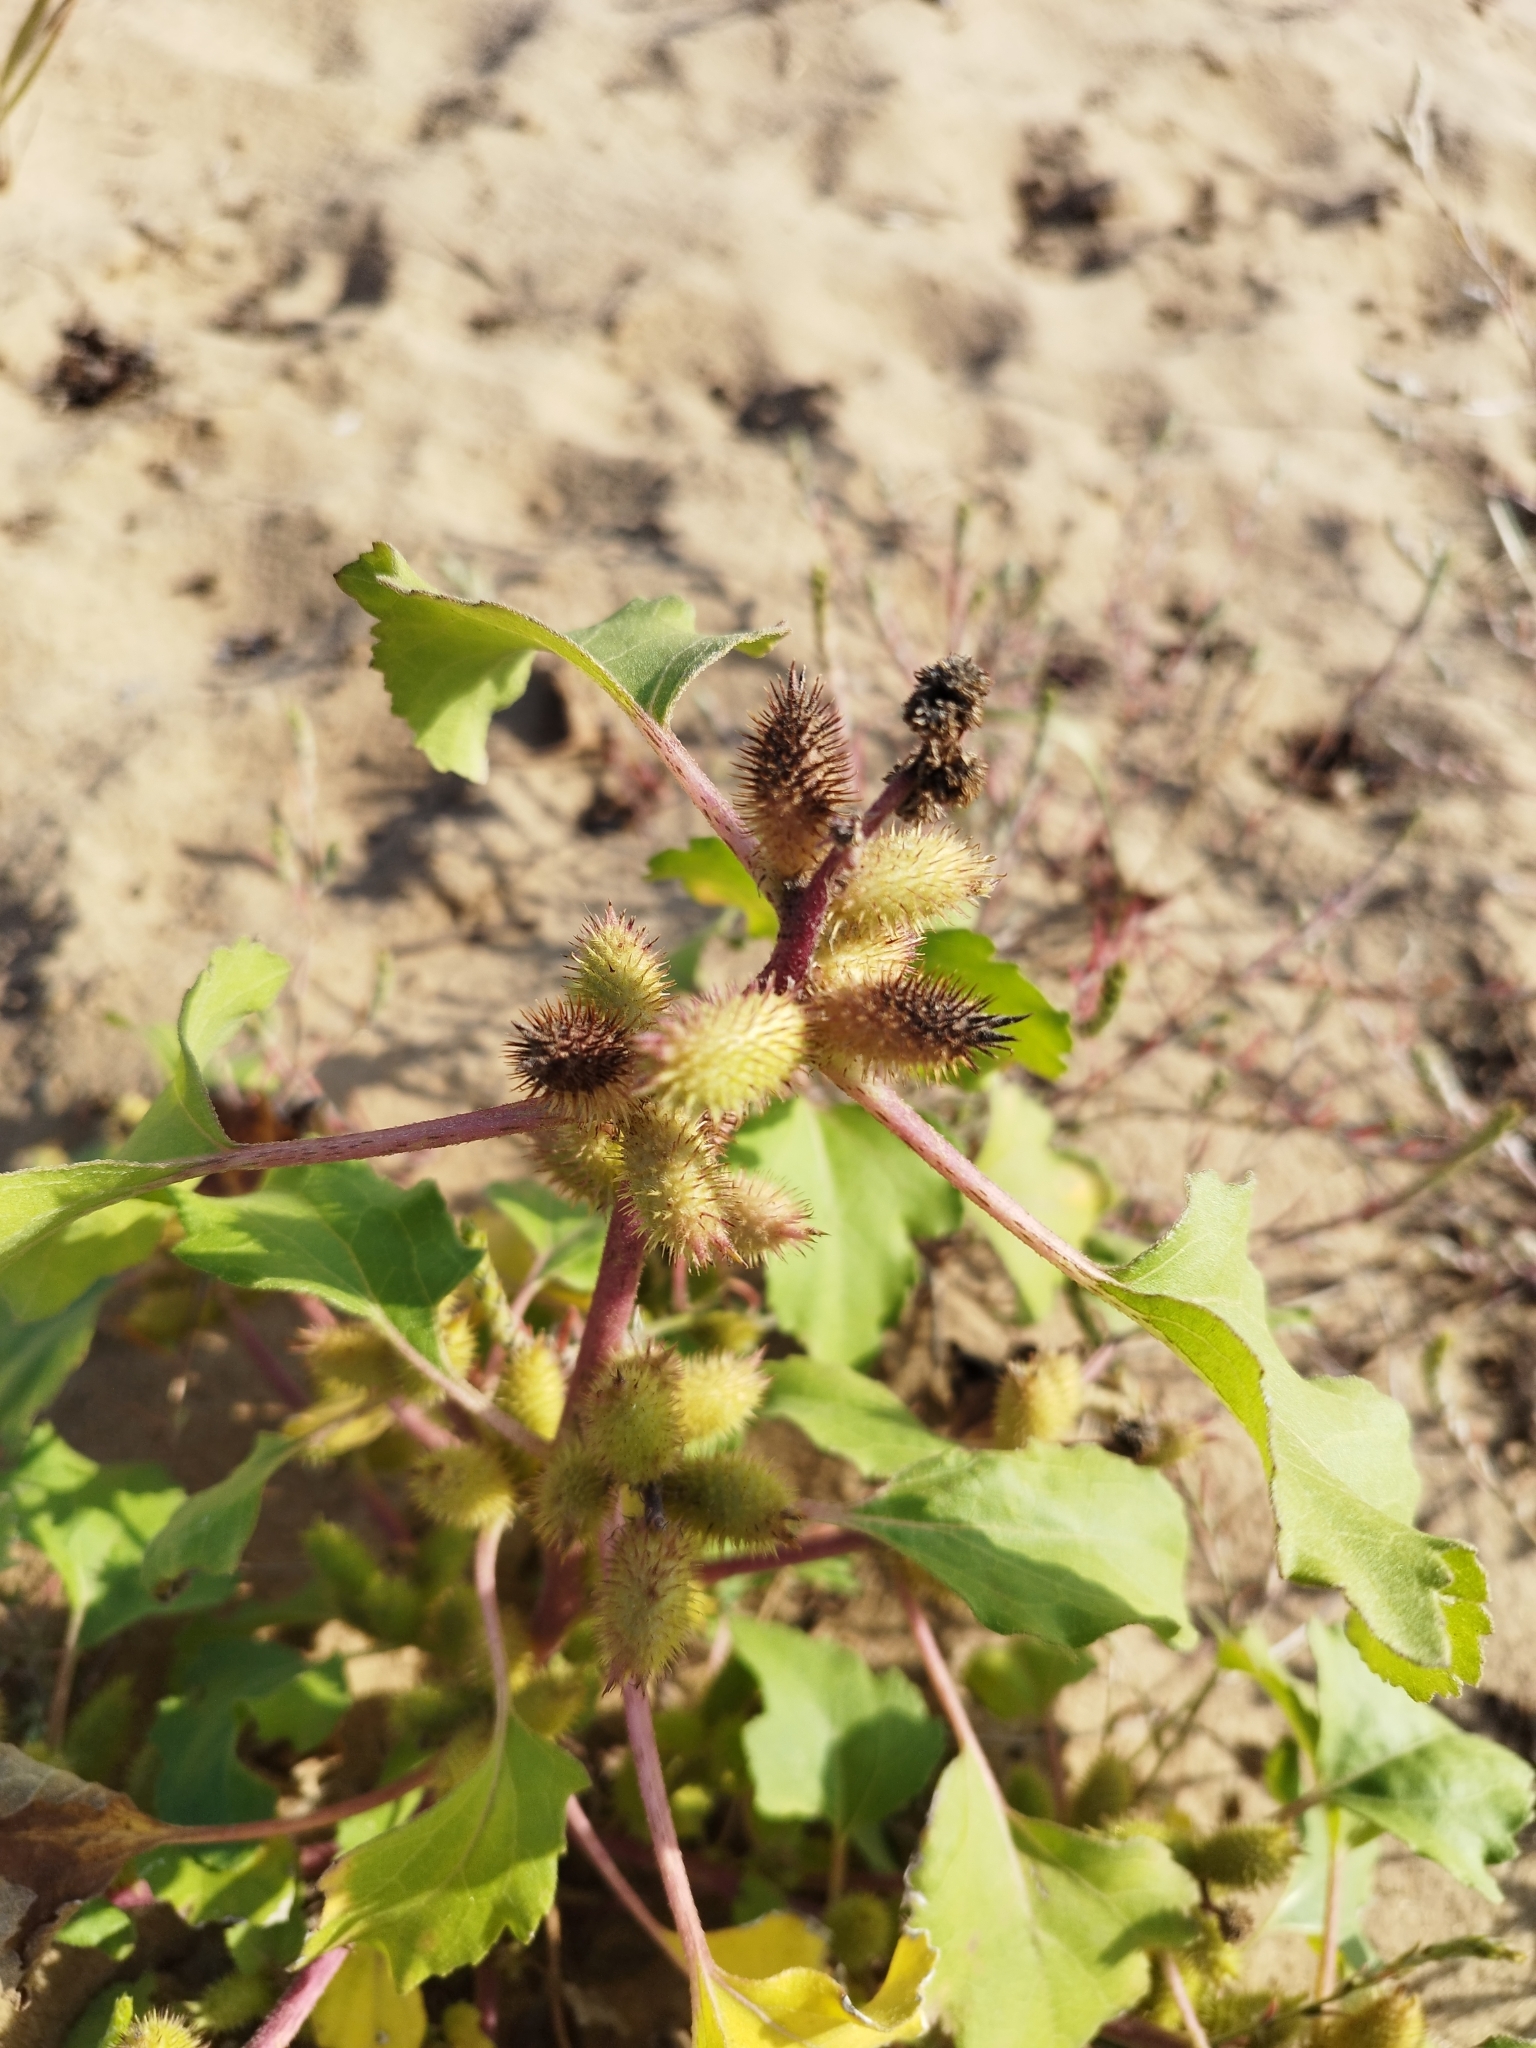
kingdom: Plantae
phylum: Tracheophyta
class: Magnoliopsida
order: Asterales
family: Asteraceae
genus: Xanthium
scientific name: Xanthium orientale
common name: Californian burr
